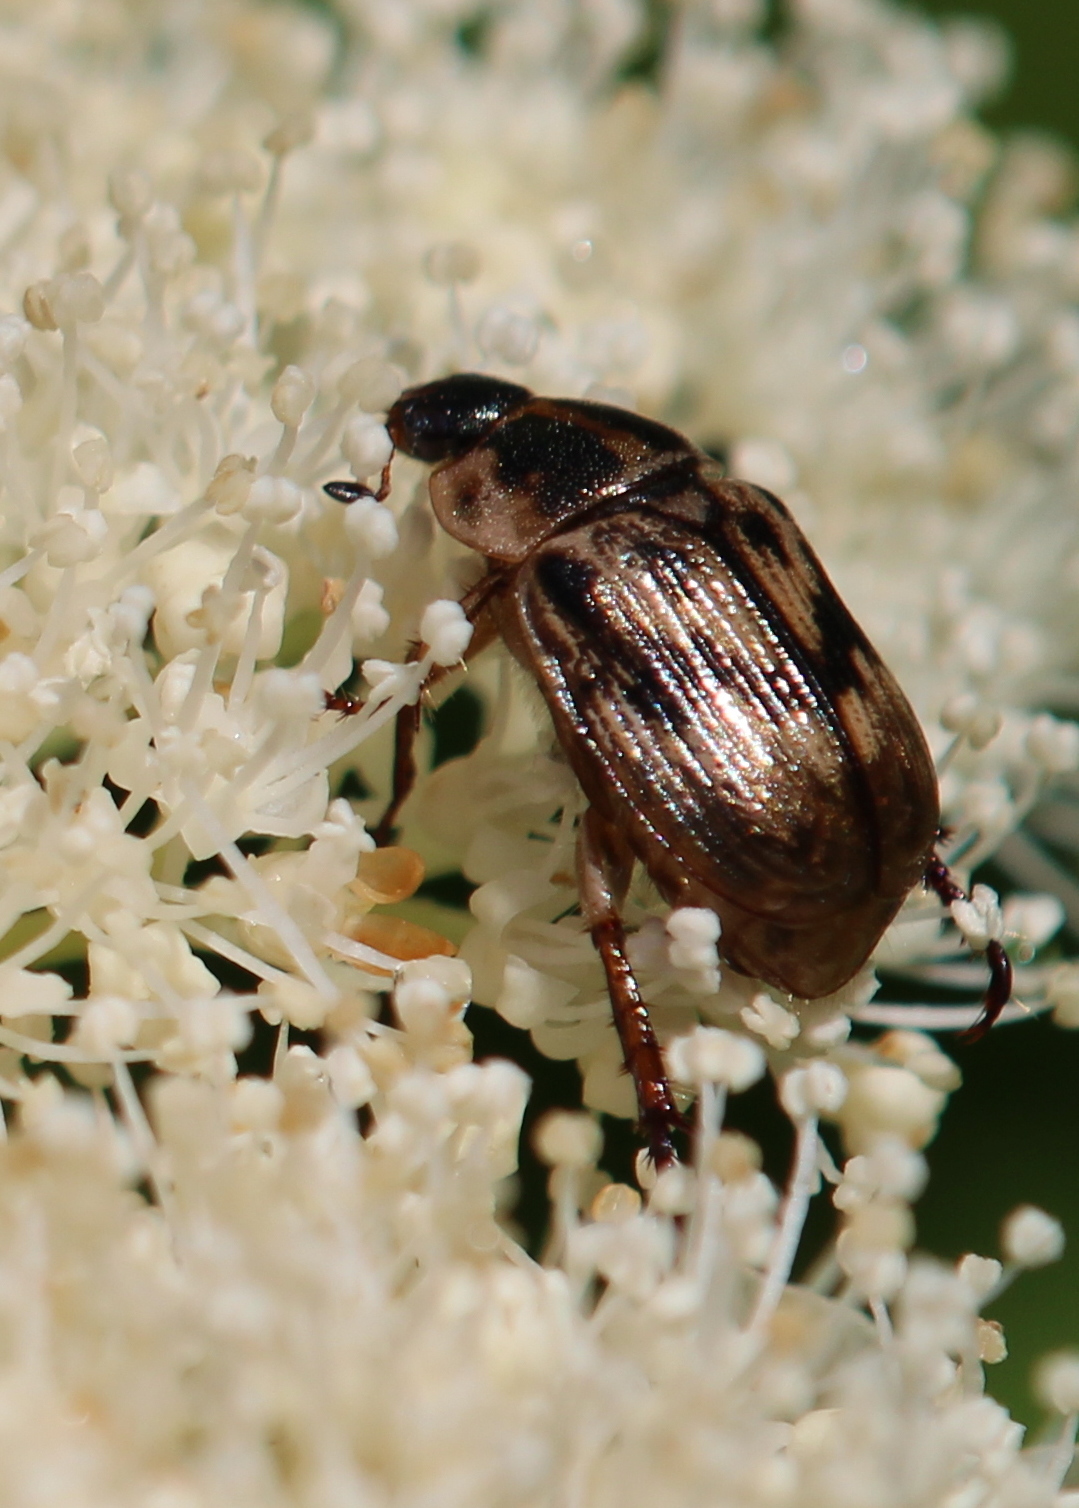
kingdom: Animalia
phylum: Arthropoda
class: Insecta
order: Coleoptera
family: Scarabaeidae
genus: Exomala
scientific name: Exomala orientalis
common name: Oriental beetle
